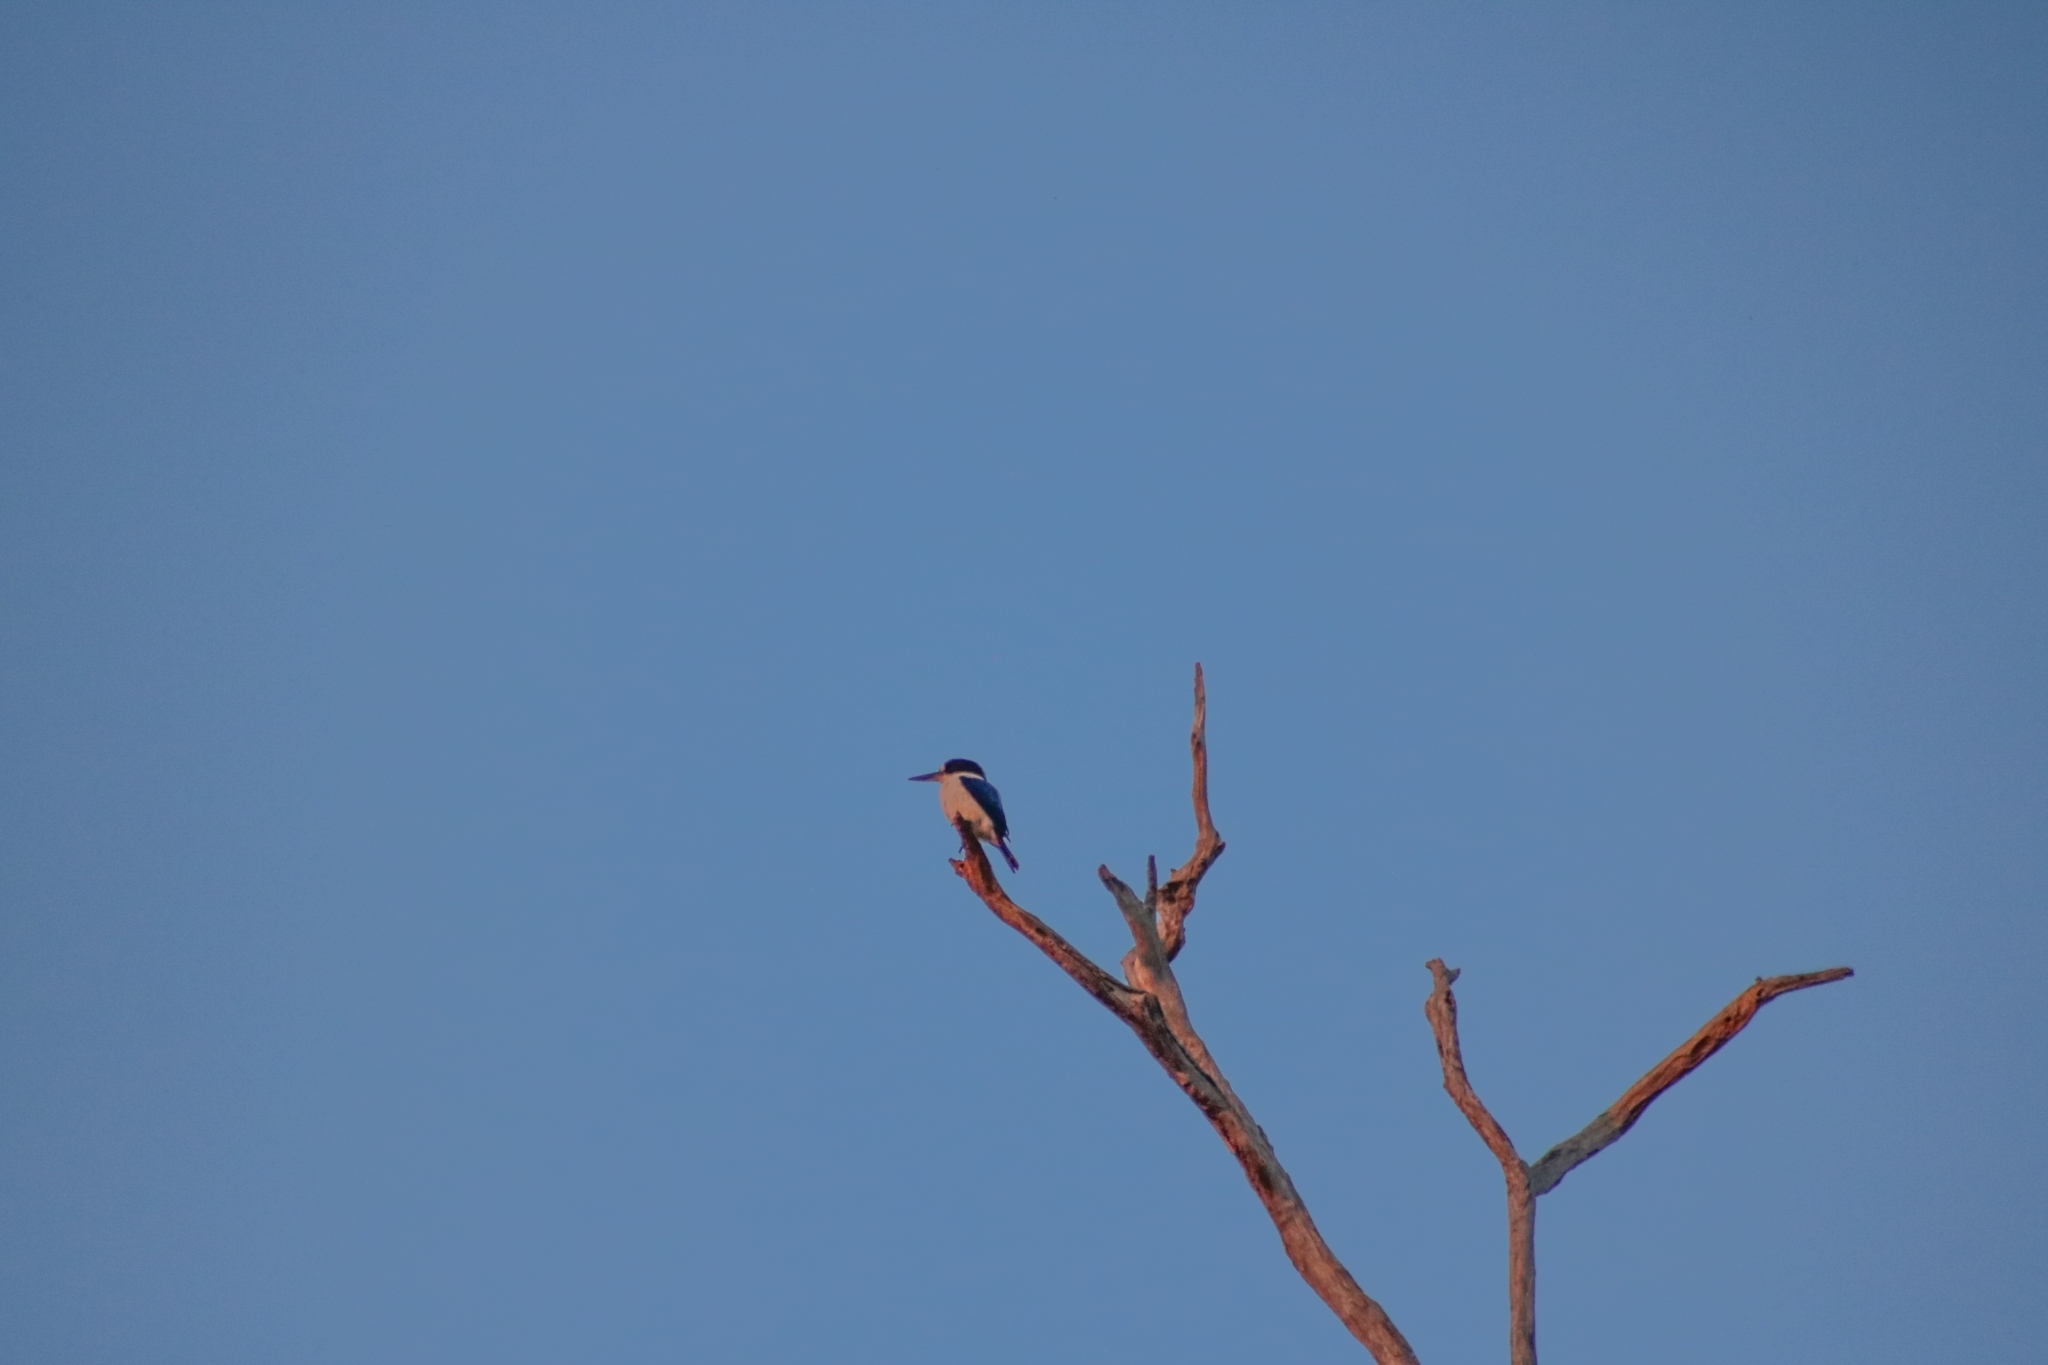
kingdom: Animalia
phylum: Chordata
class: Aves
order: Coraciiformes
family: Alcedinidae
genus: Todiramphus
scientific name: Todiramphus macleayii
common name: Forest kingfisher
